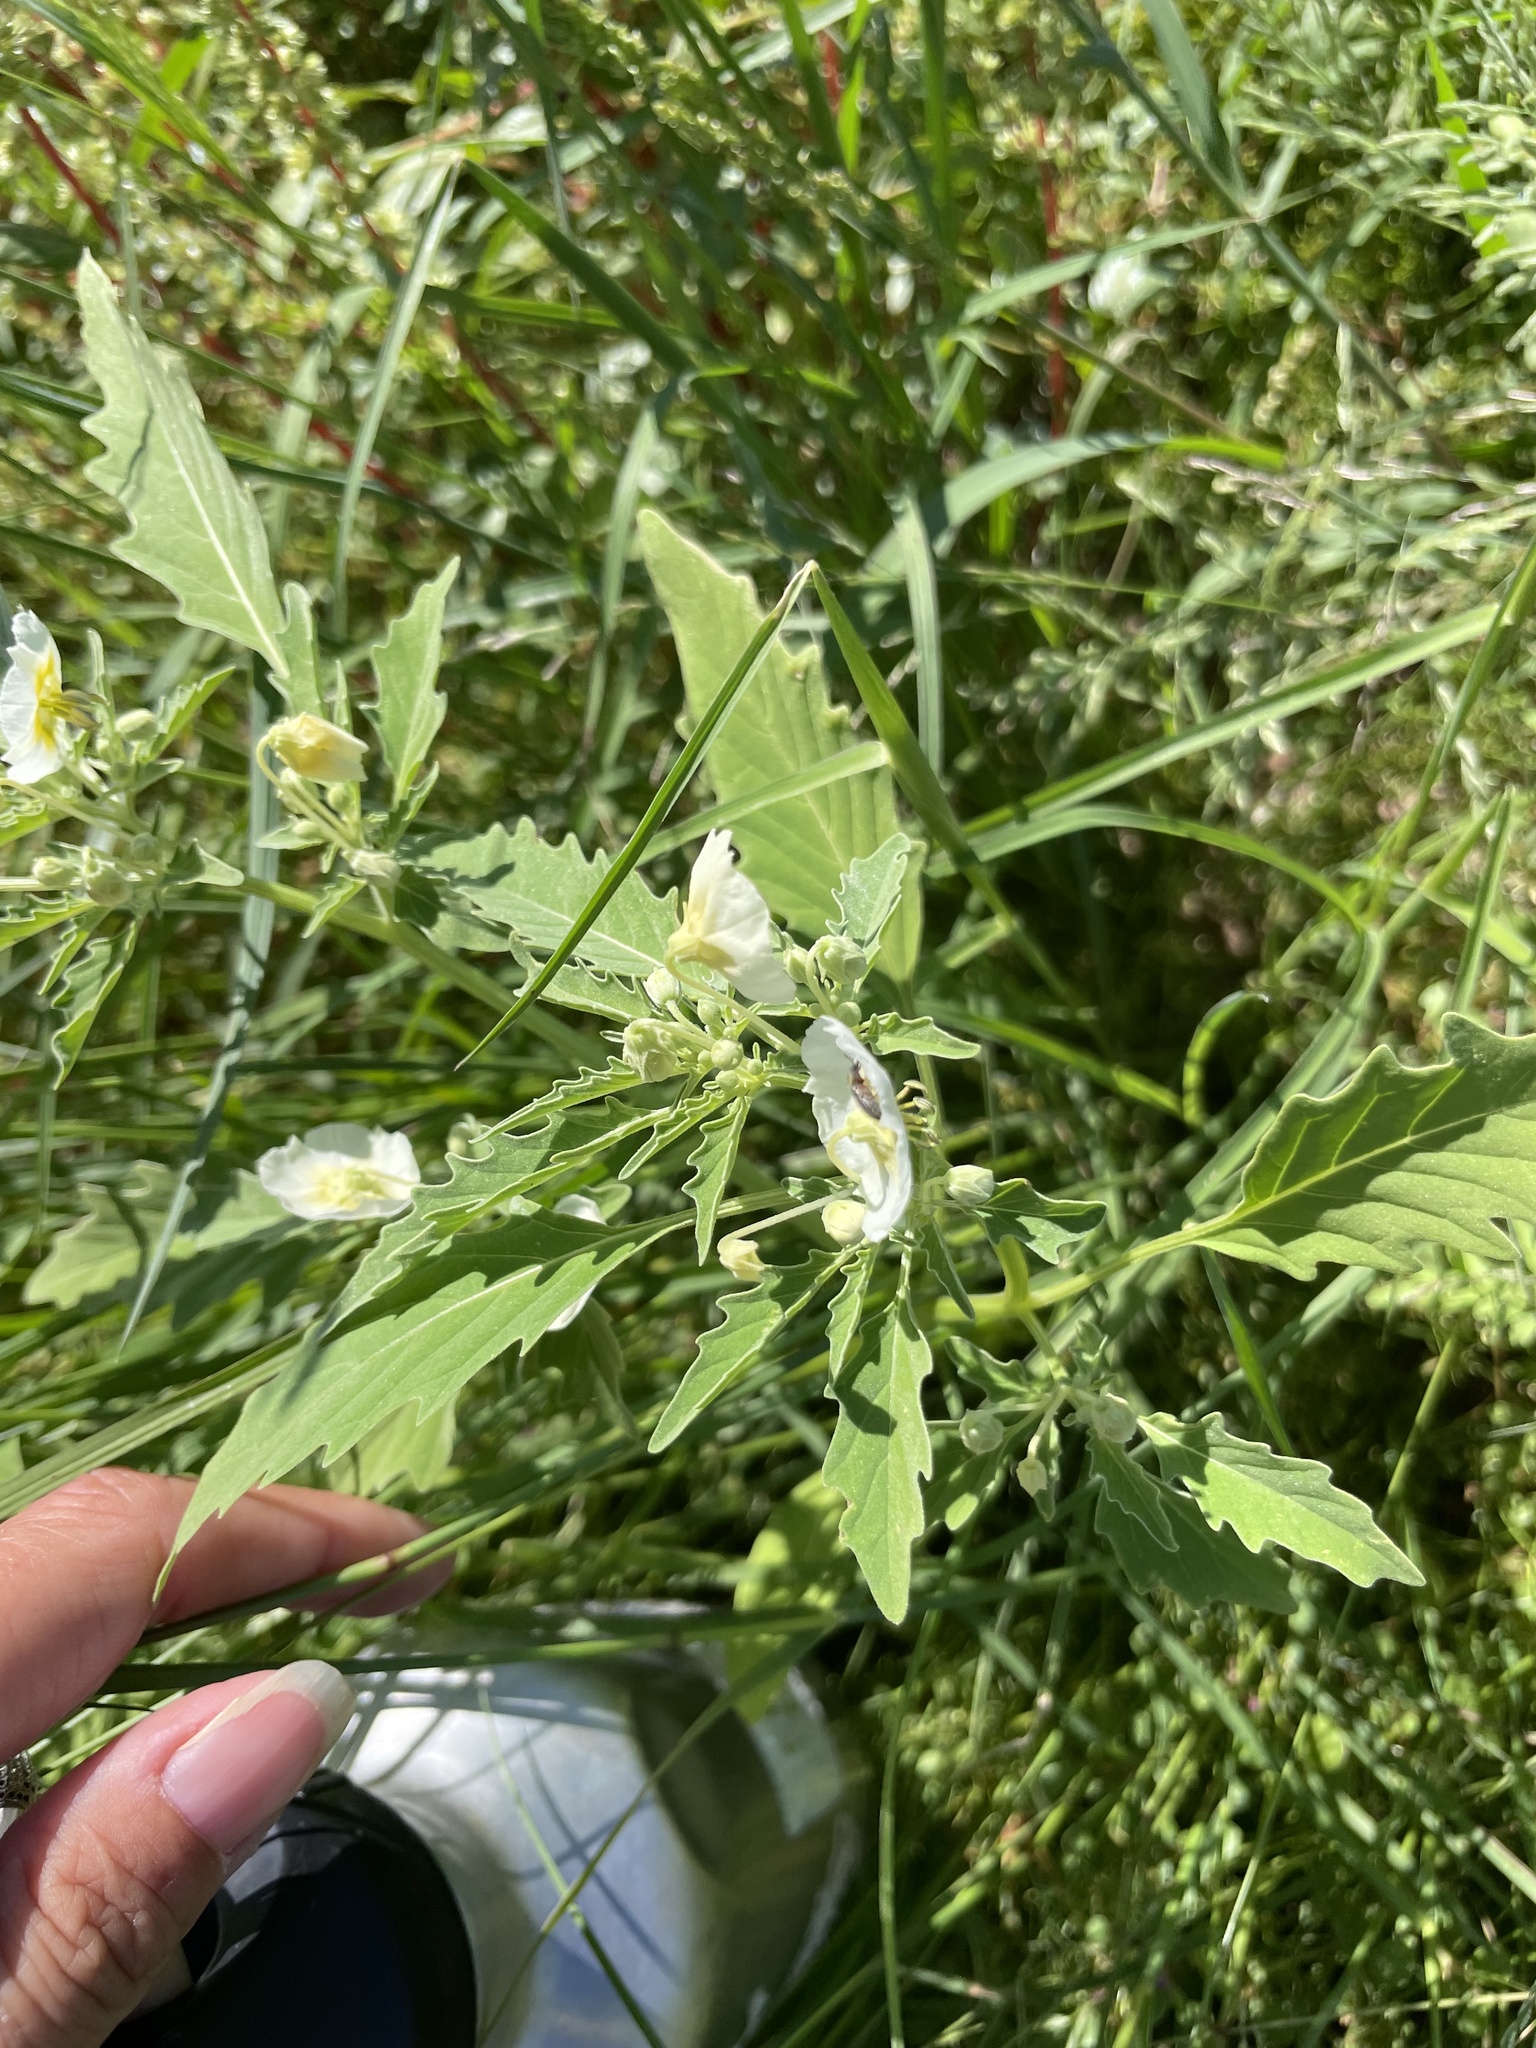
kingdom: Plantae
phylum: Tracheophyta
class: Magnoliopsida
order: Solanales
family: Solanaceae
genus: Physalis
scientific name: Physalis acutifolia
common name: Wright's ground-cherry
